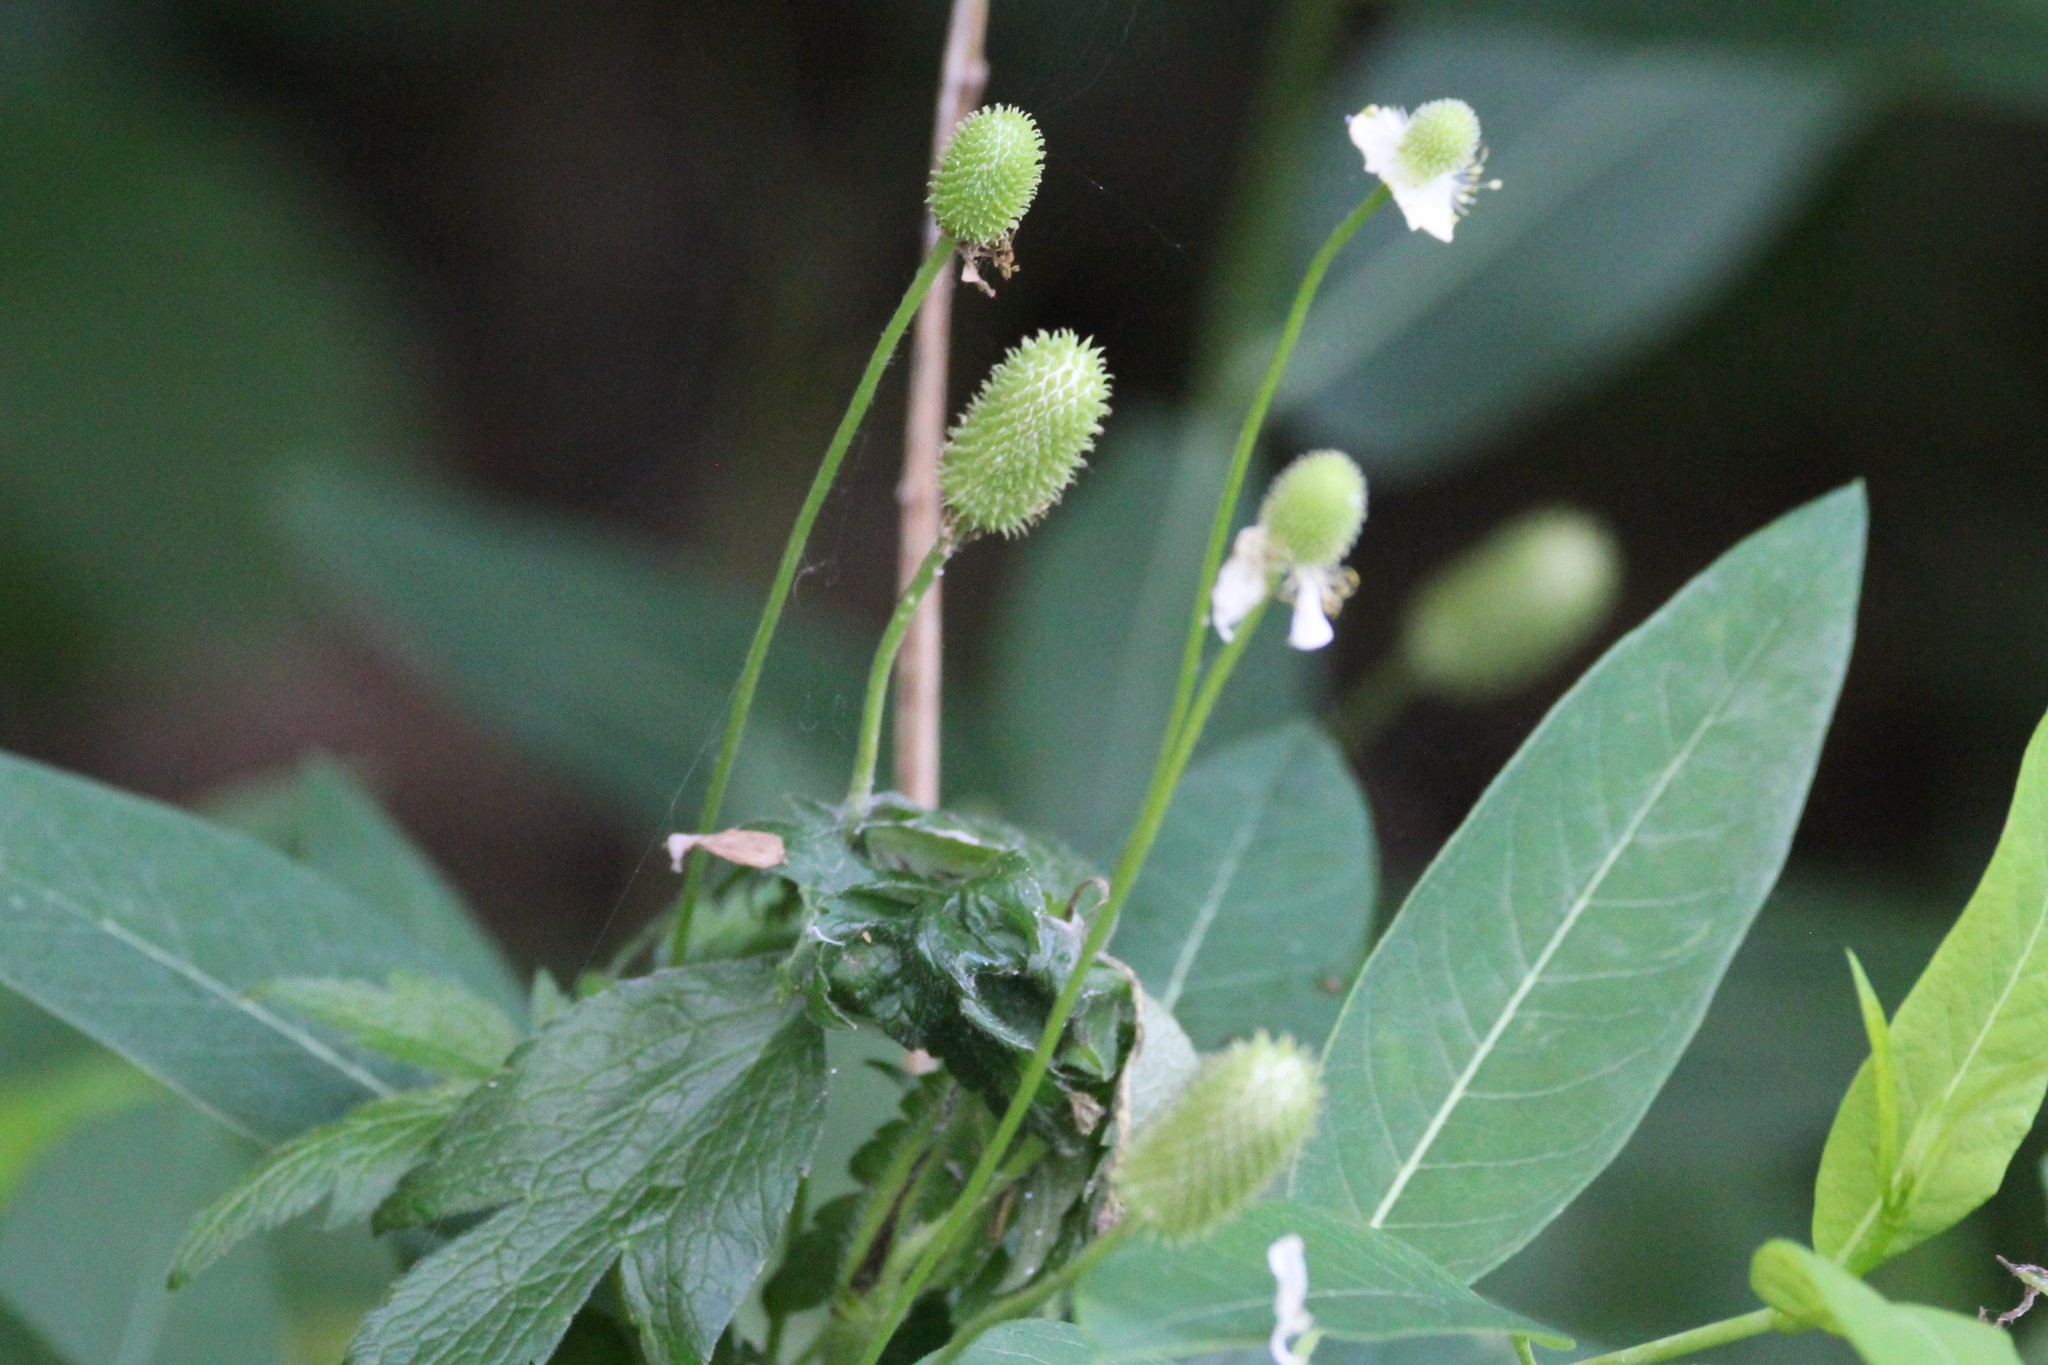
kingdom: Plantae
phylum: Tracheophyta
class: Magnoliopsida
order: Ranunculales
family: Ranunculaceae
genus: Anemone
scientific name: Anemone virginiana
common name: Tall anemone
